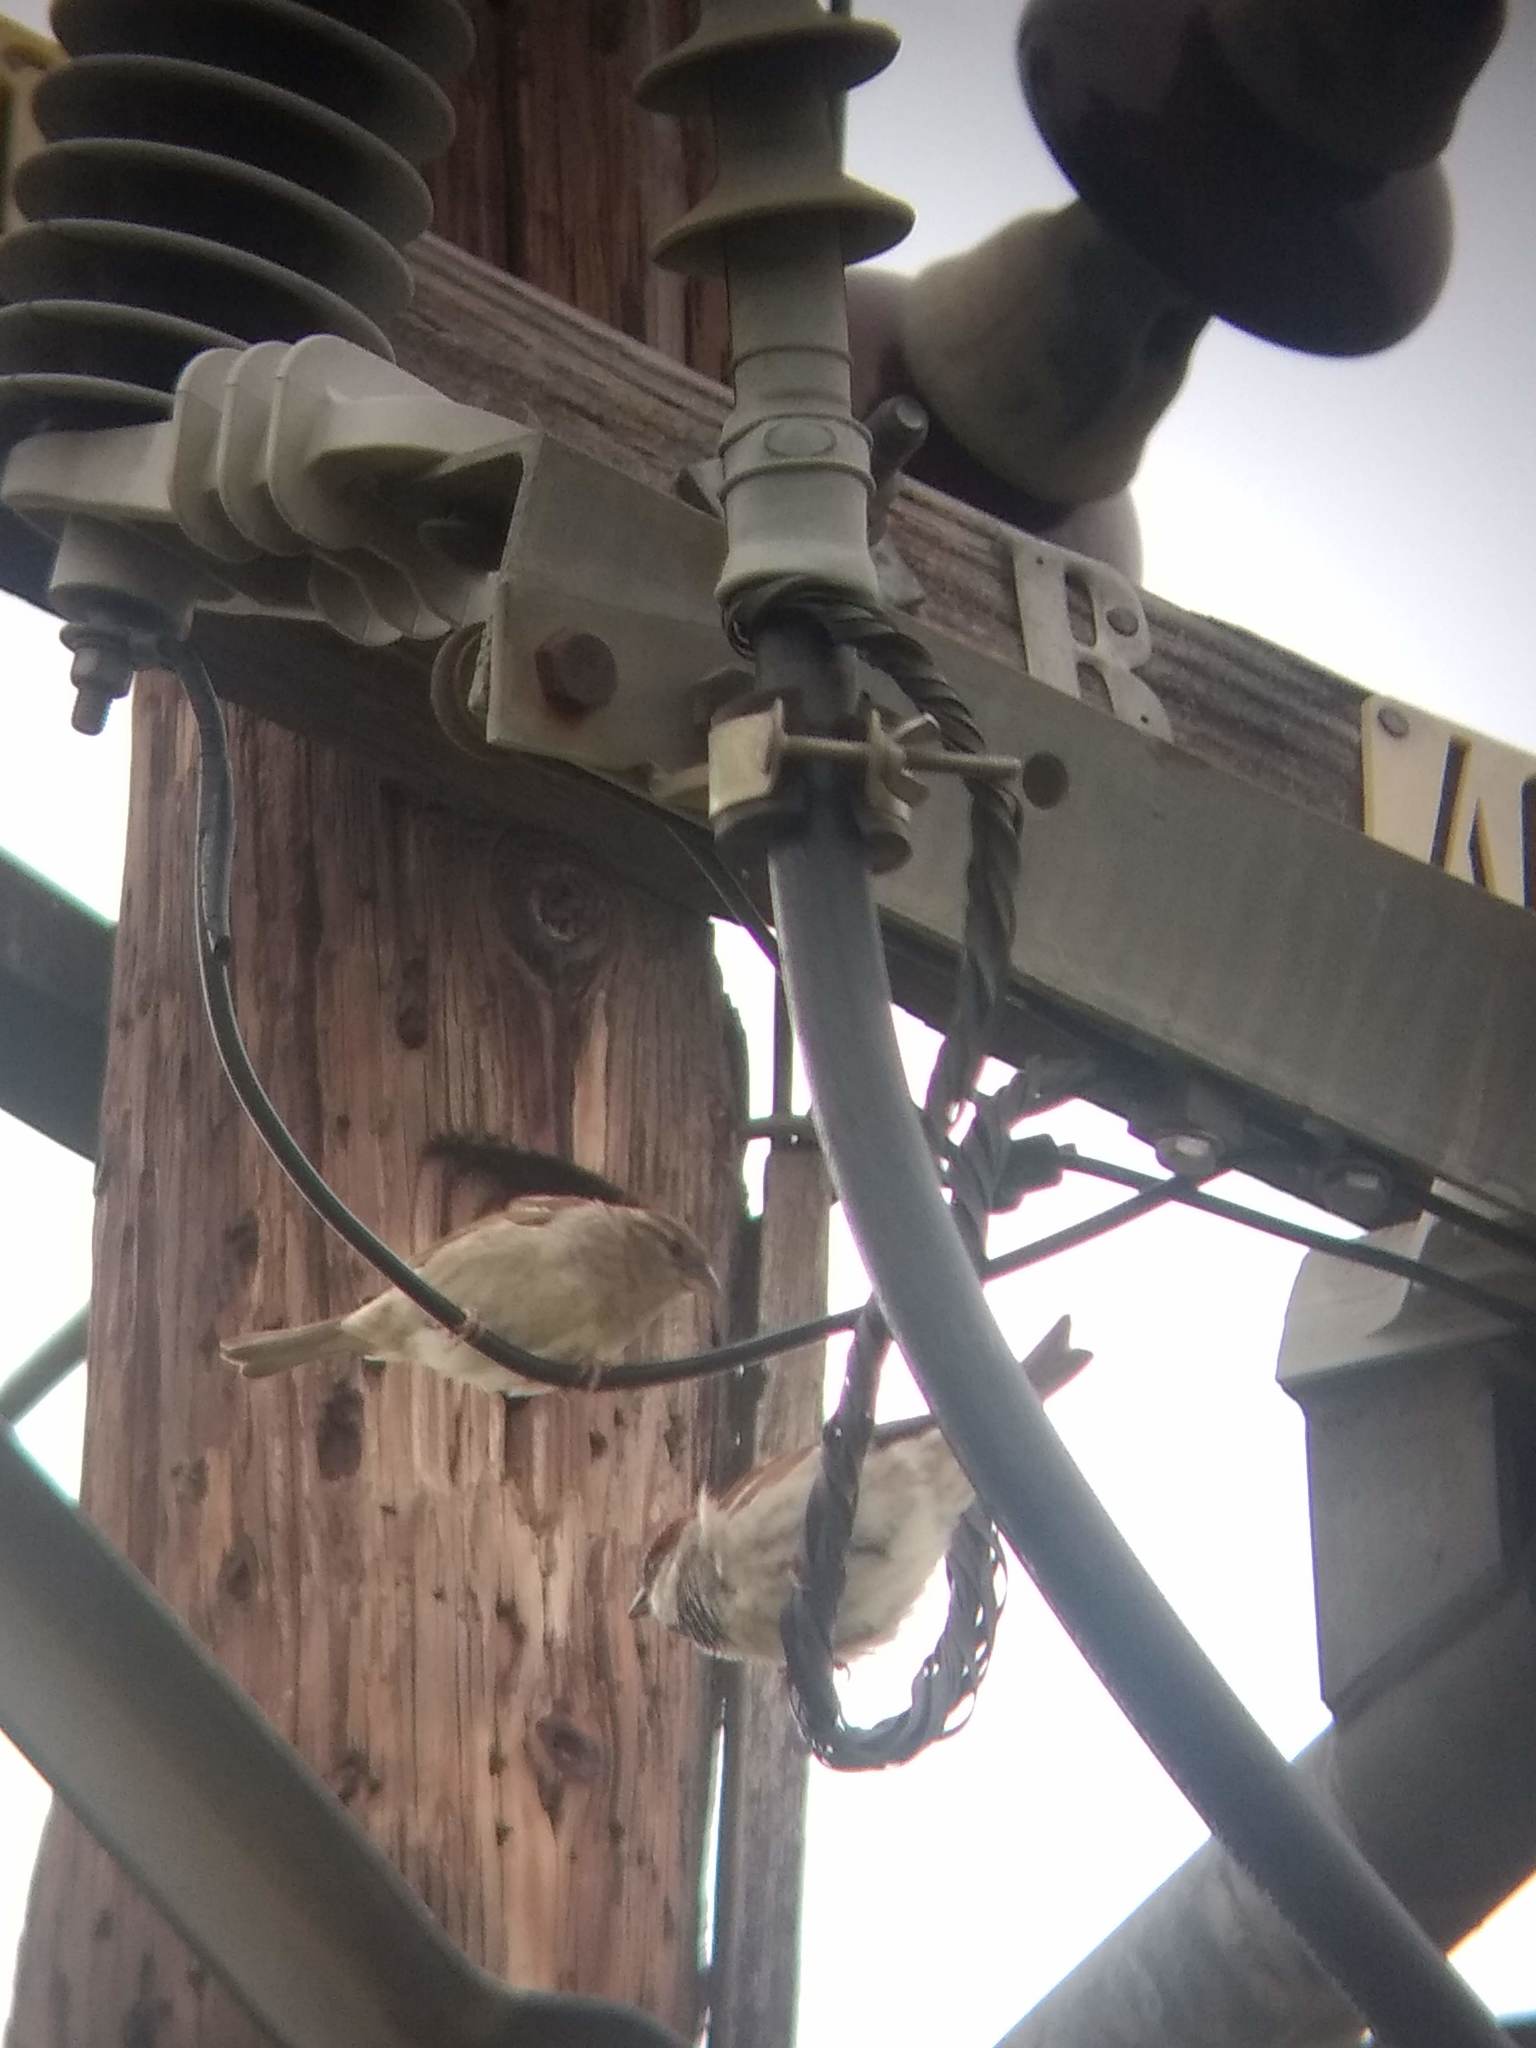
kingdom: Animalia
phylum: Chordata
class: Aves
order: Passeriformes
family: Passeridae
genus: Passer
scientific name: Passer domesticus
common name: House sparrow
